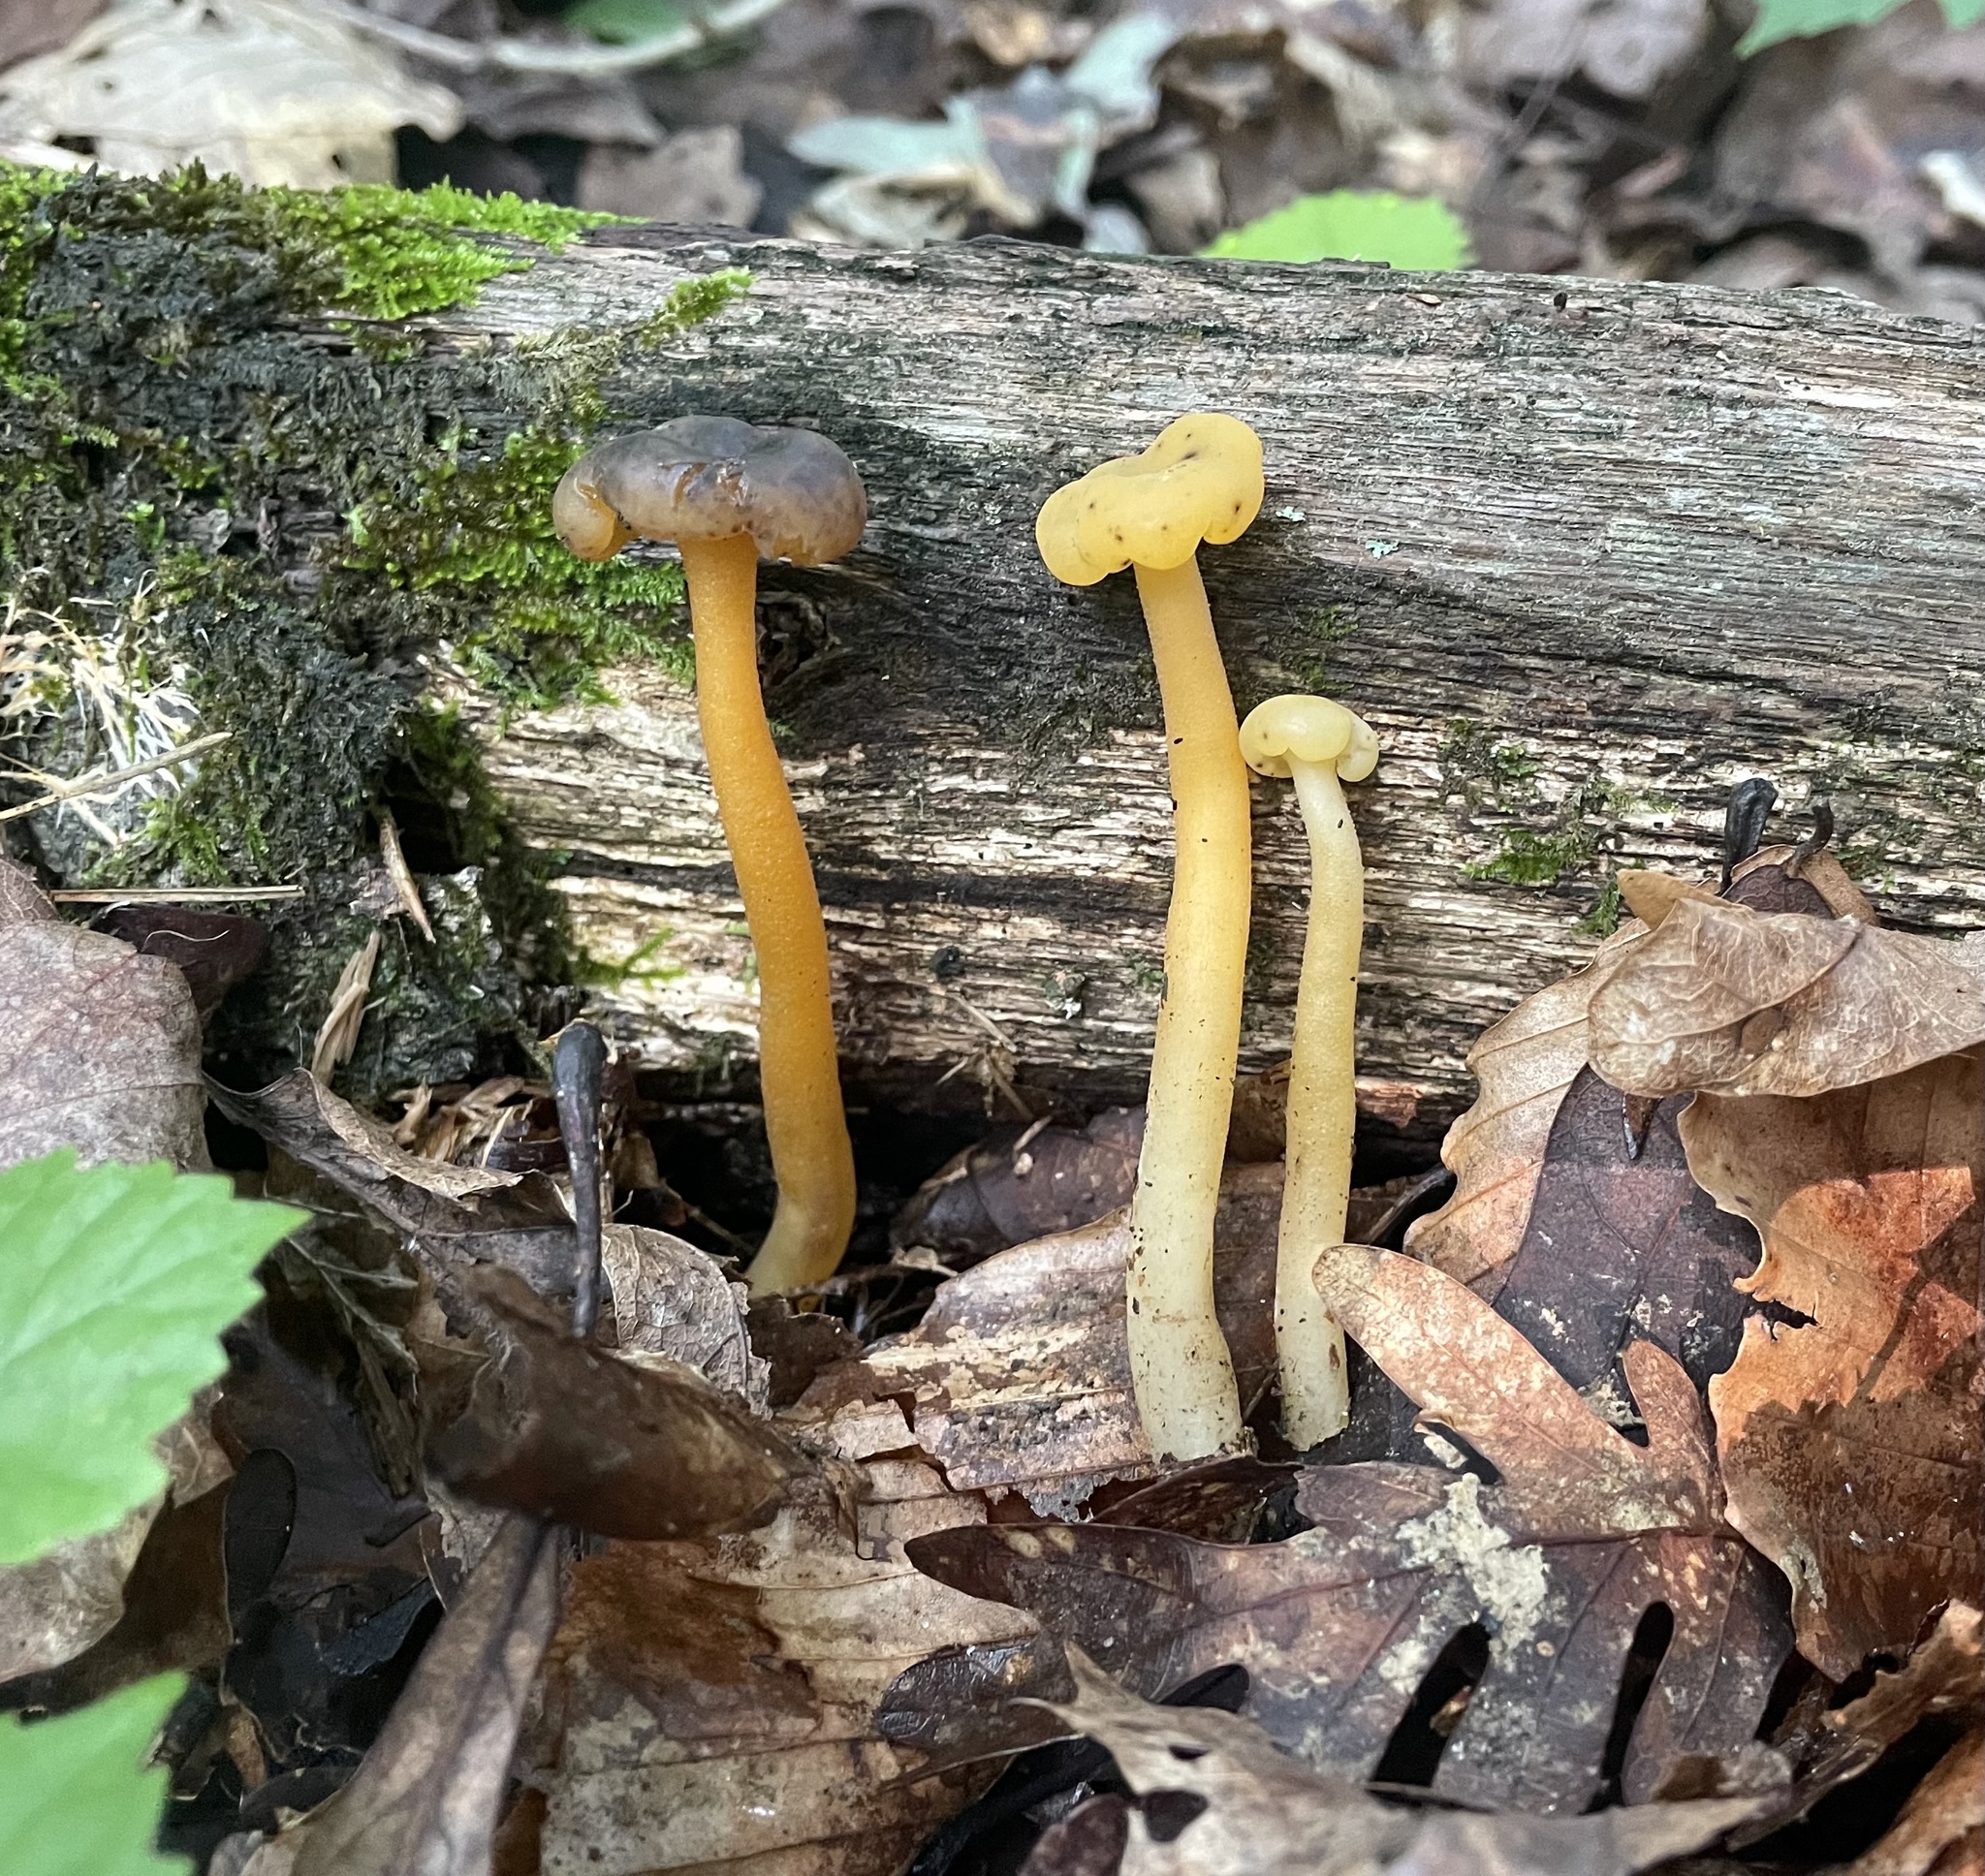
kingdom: Fungi
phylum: Ascomycota
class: Leotiomycetes
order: Leotiales
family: Leotiaceae
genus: Leotia
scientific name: Leotia lubrica
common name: Jellybaby
